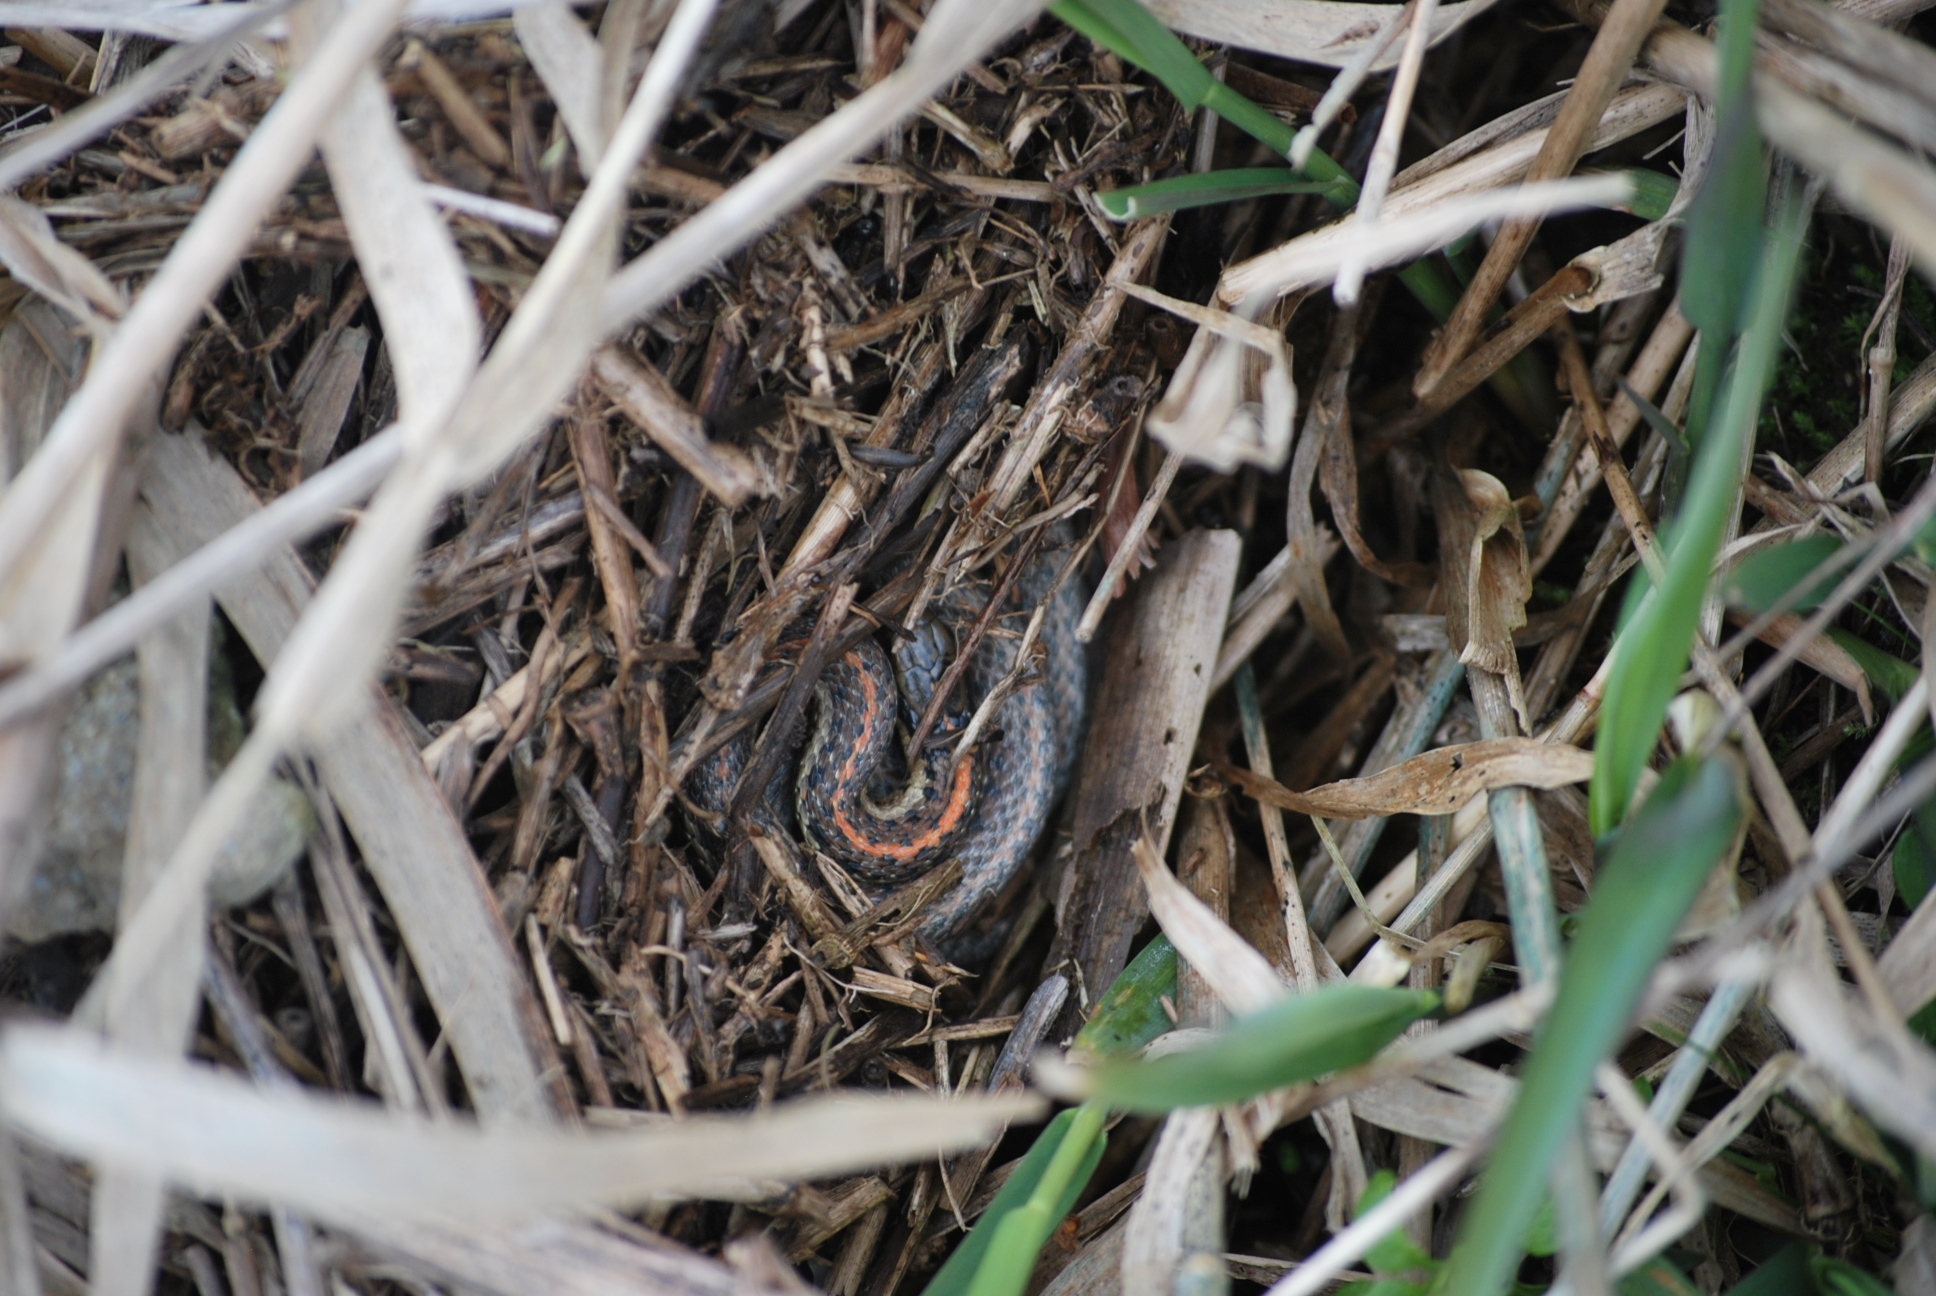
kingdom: Animalia
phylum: Chordata
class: Squamata
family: Colubridae
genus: Thamnophis
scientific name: Thamnophis ordinoides
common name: Northwestern garter snake
